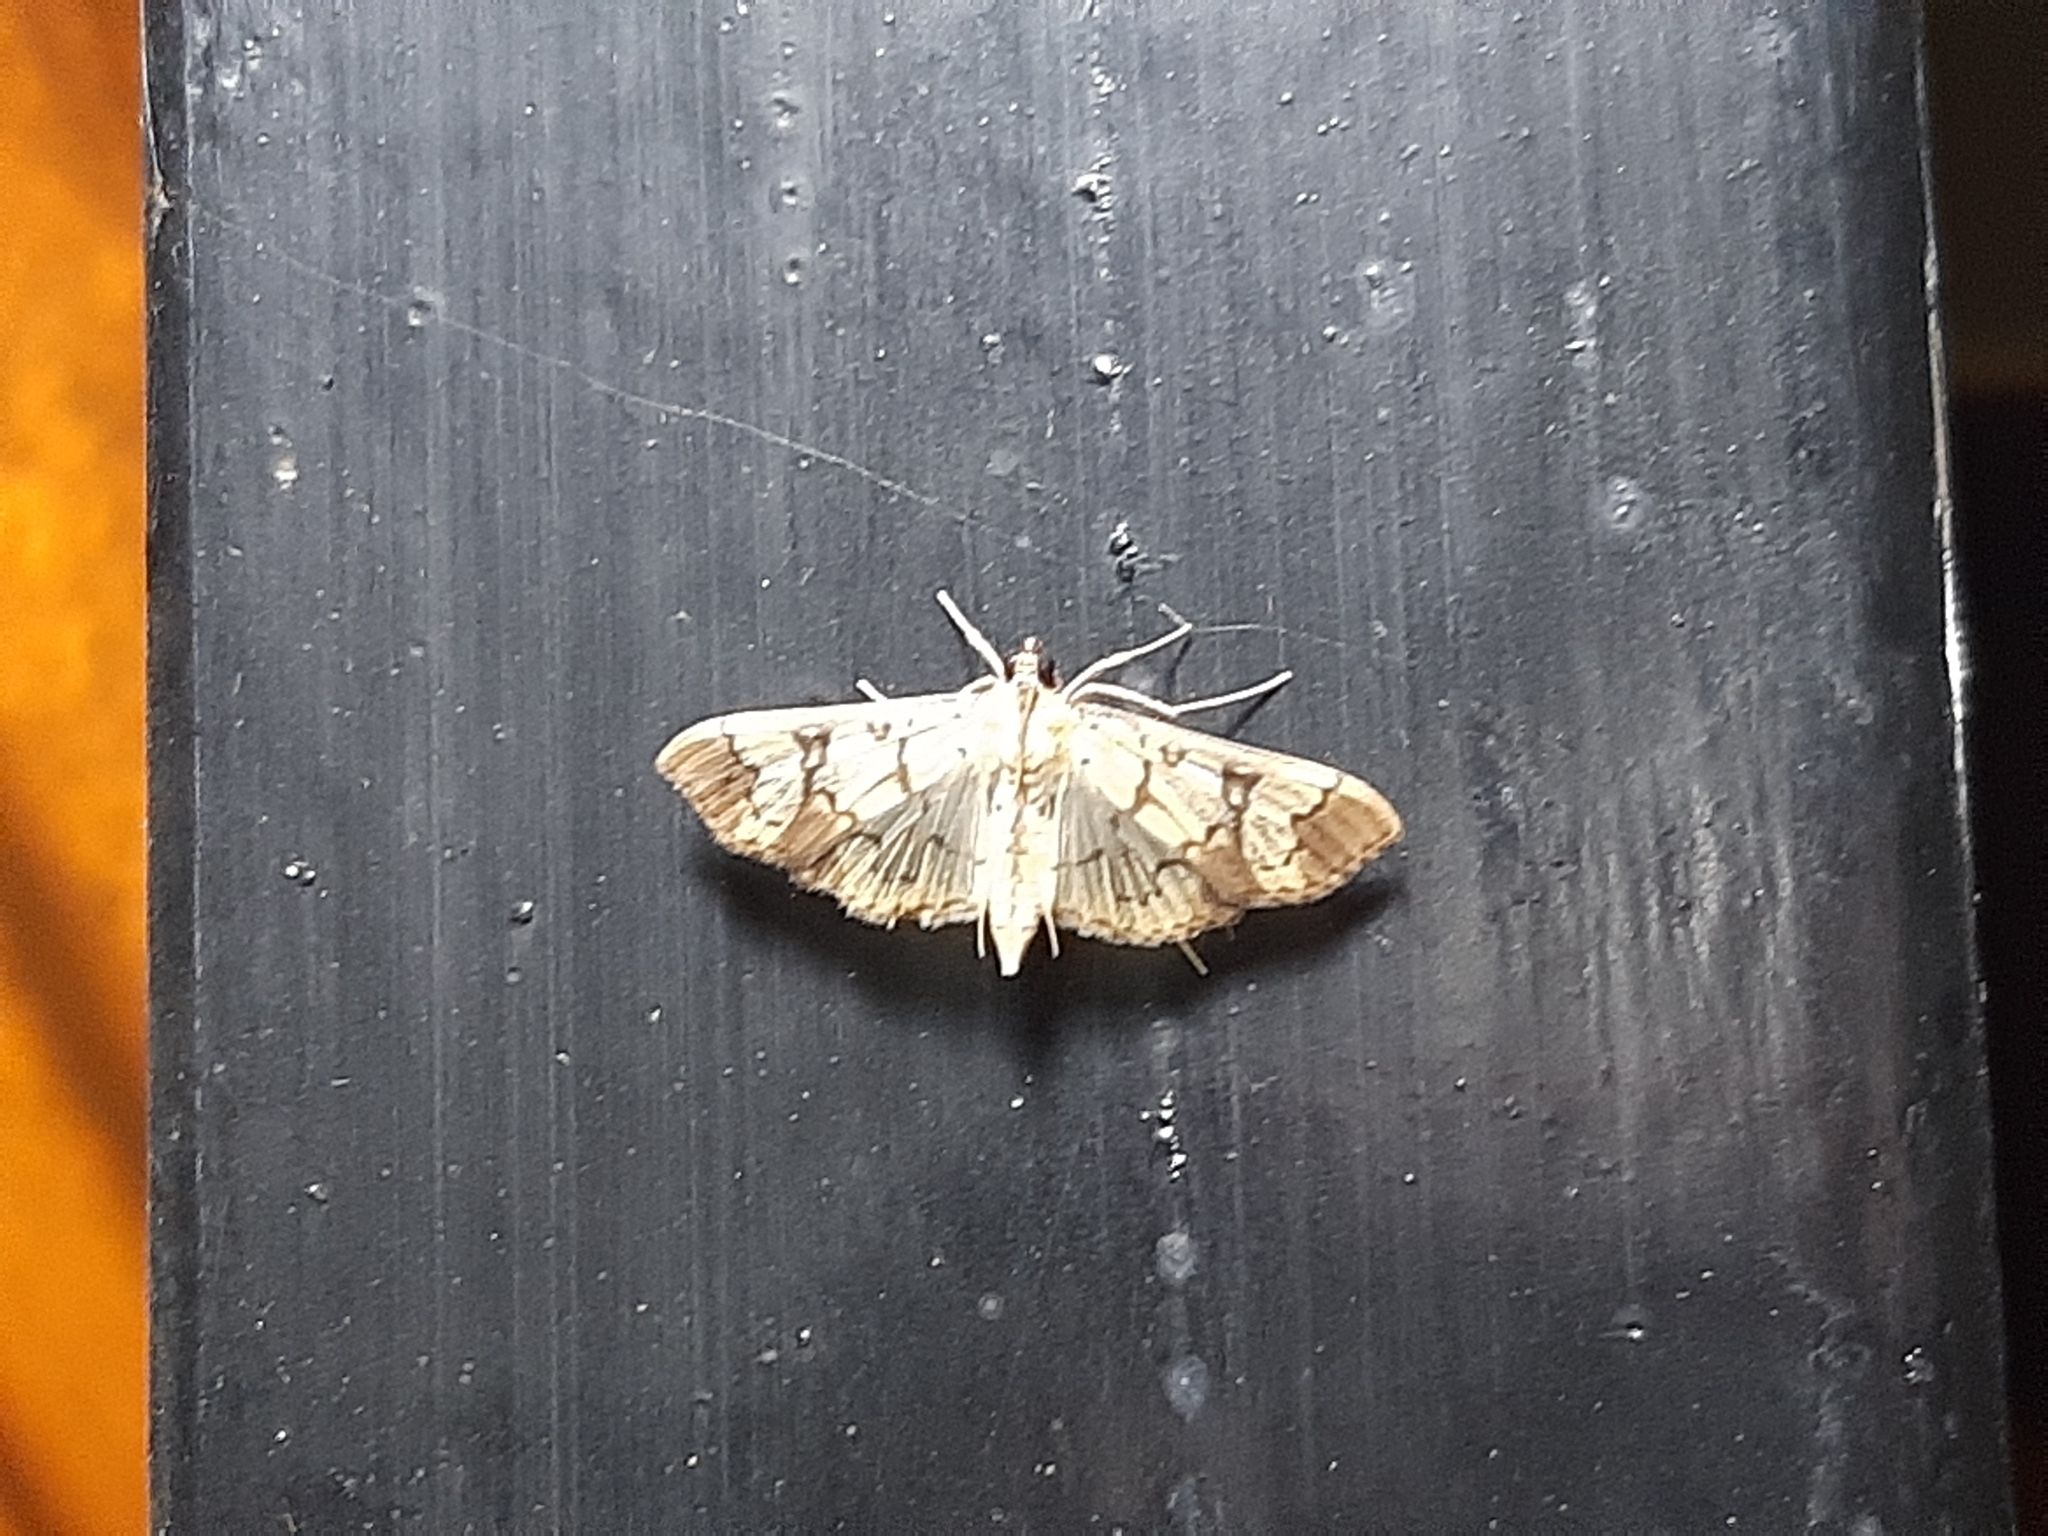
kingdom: Animalia
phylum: Arthropoda
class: Insecta
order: Lepidoptera
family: Crambidae
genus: Praeacrospila
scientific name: Praeacrospila melanoproctis
